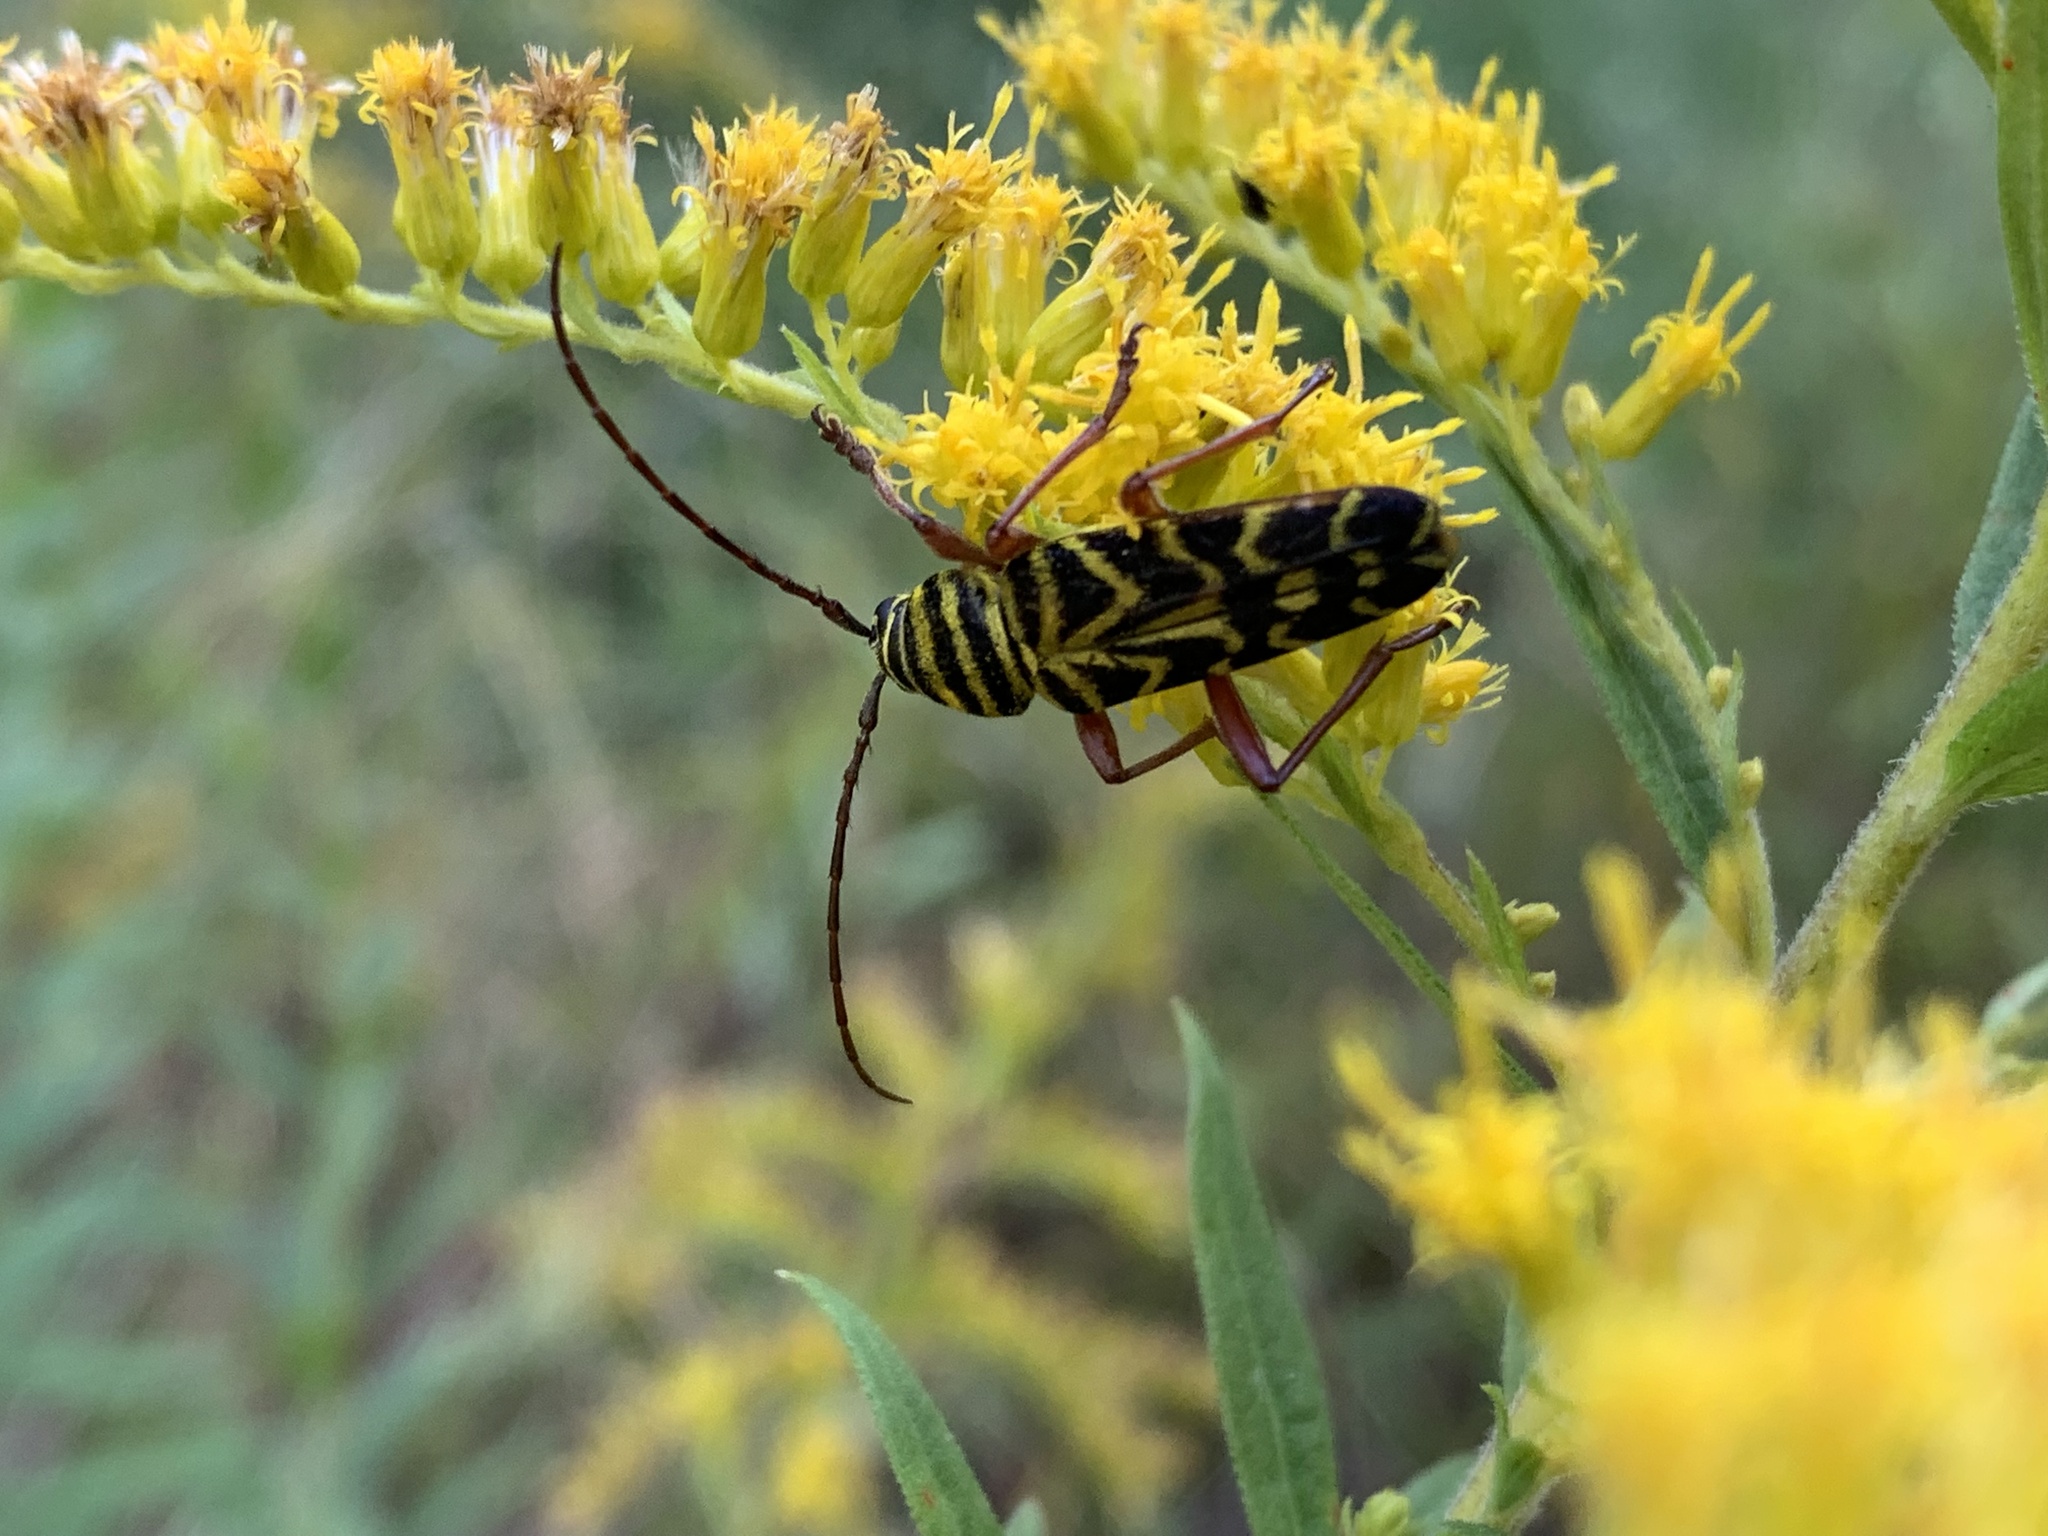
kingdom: Animalia
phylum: Arthropoda
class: Insecta
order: Coleoptera
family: Cerambycidae
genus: Megacyllene
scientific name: Megacyllene robiniae
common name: Locust borer
